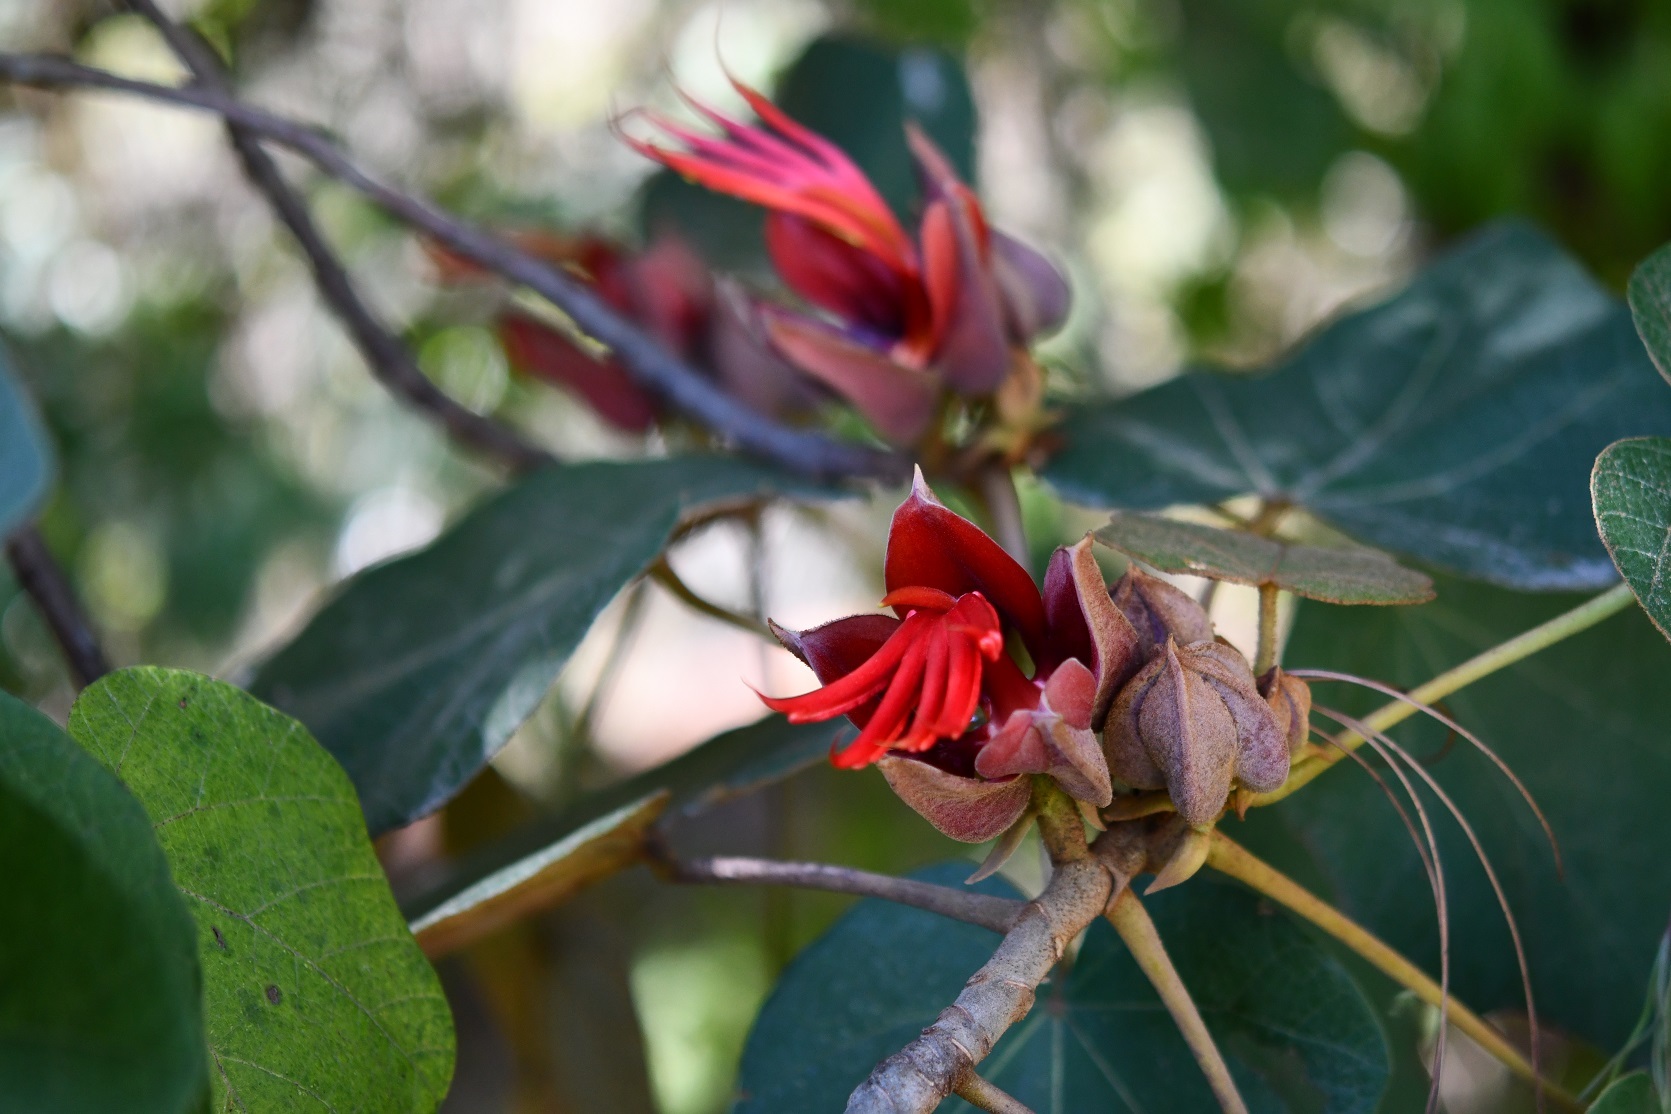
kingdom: Plantae
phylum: Tracheophyta
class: Magnoliopsida
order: Malvales
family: Malvaceae
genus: Chiranthodendron
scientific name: Chiranthodendron pentadactylon
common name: Mexican-hat-plant
